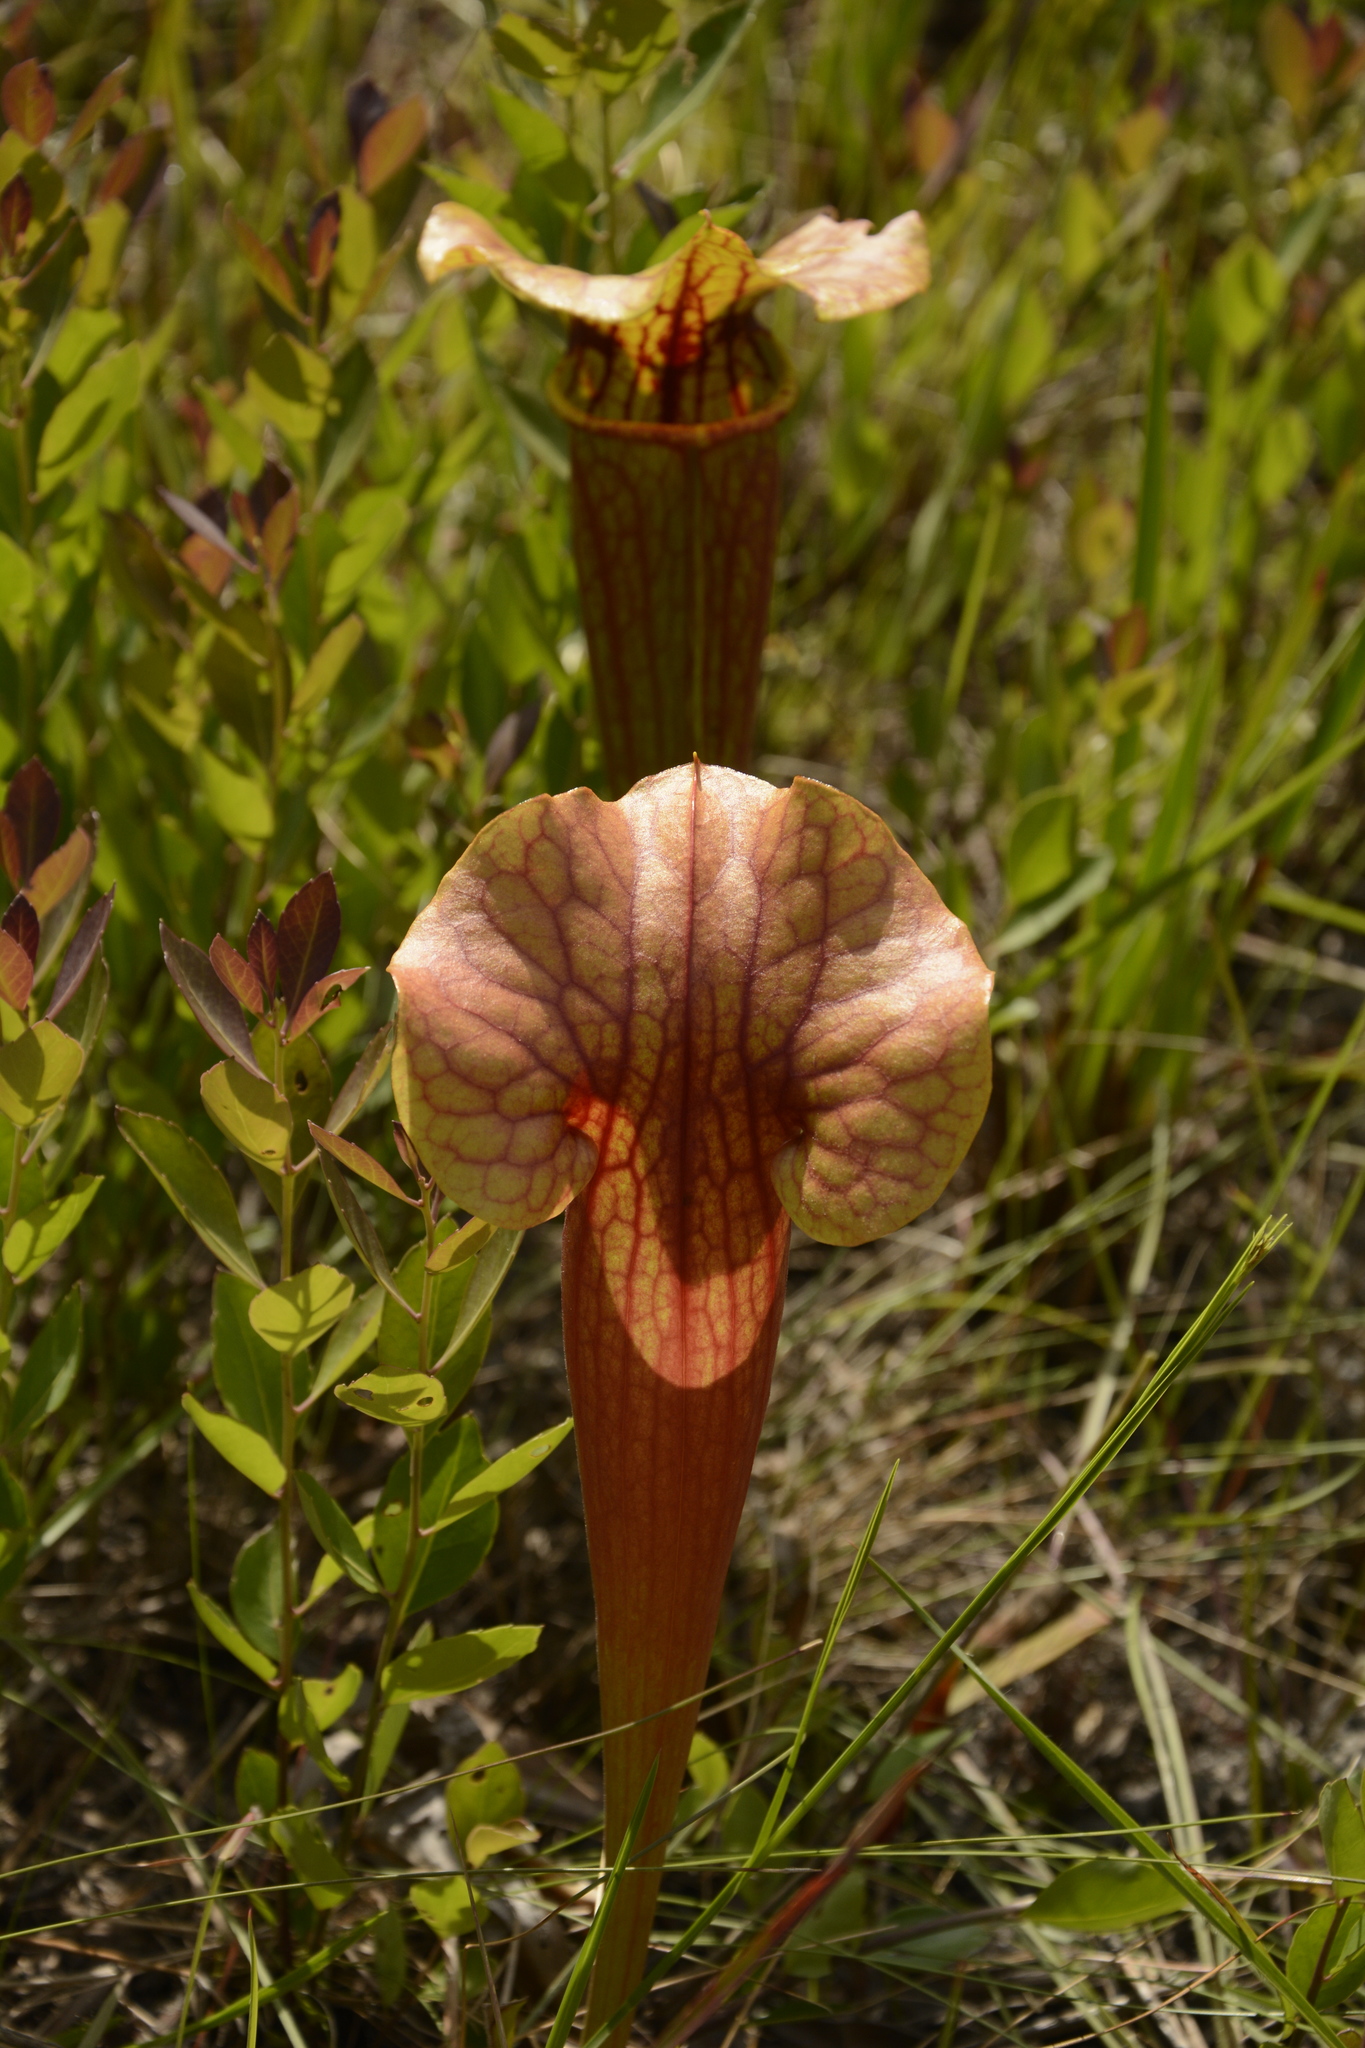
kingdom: Plantae
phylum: Tracheophyta
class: Magnoliopsida
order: Ericales
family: Sarraceniaceae
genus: Sarracenia
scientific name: Sarracenia naczii
